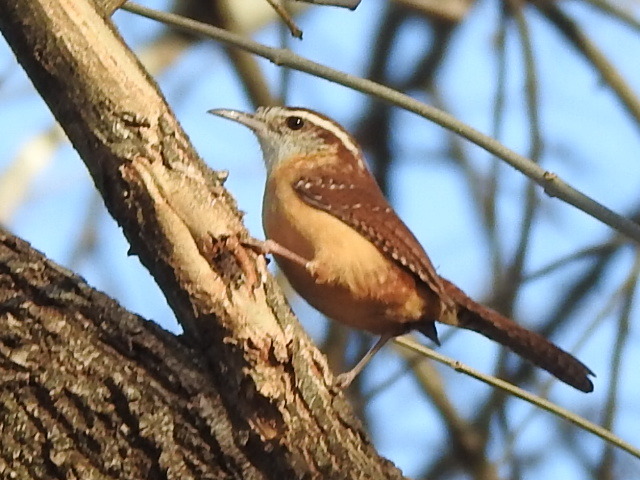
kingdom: Animalia
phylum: Chordata
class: Aves
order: Passeriformes
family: Troglodytidae
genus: Thryothorus
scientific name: Thryothorus ludovicianus
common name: Carolina wren
